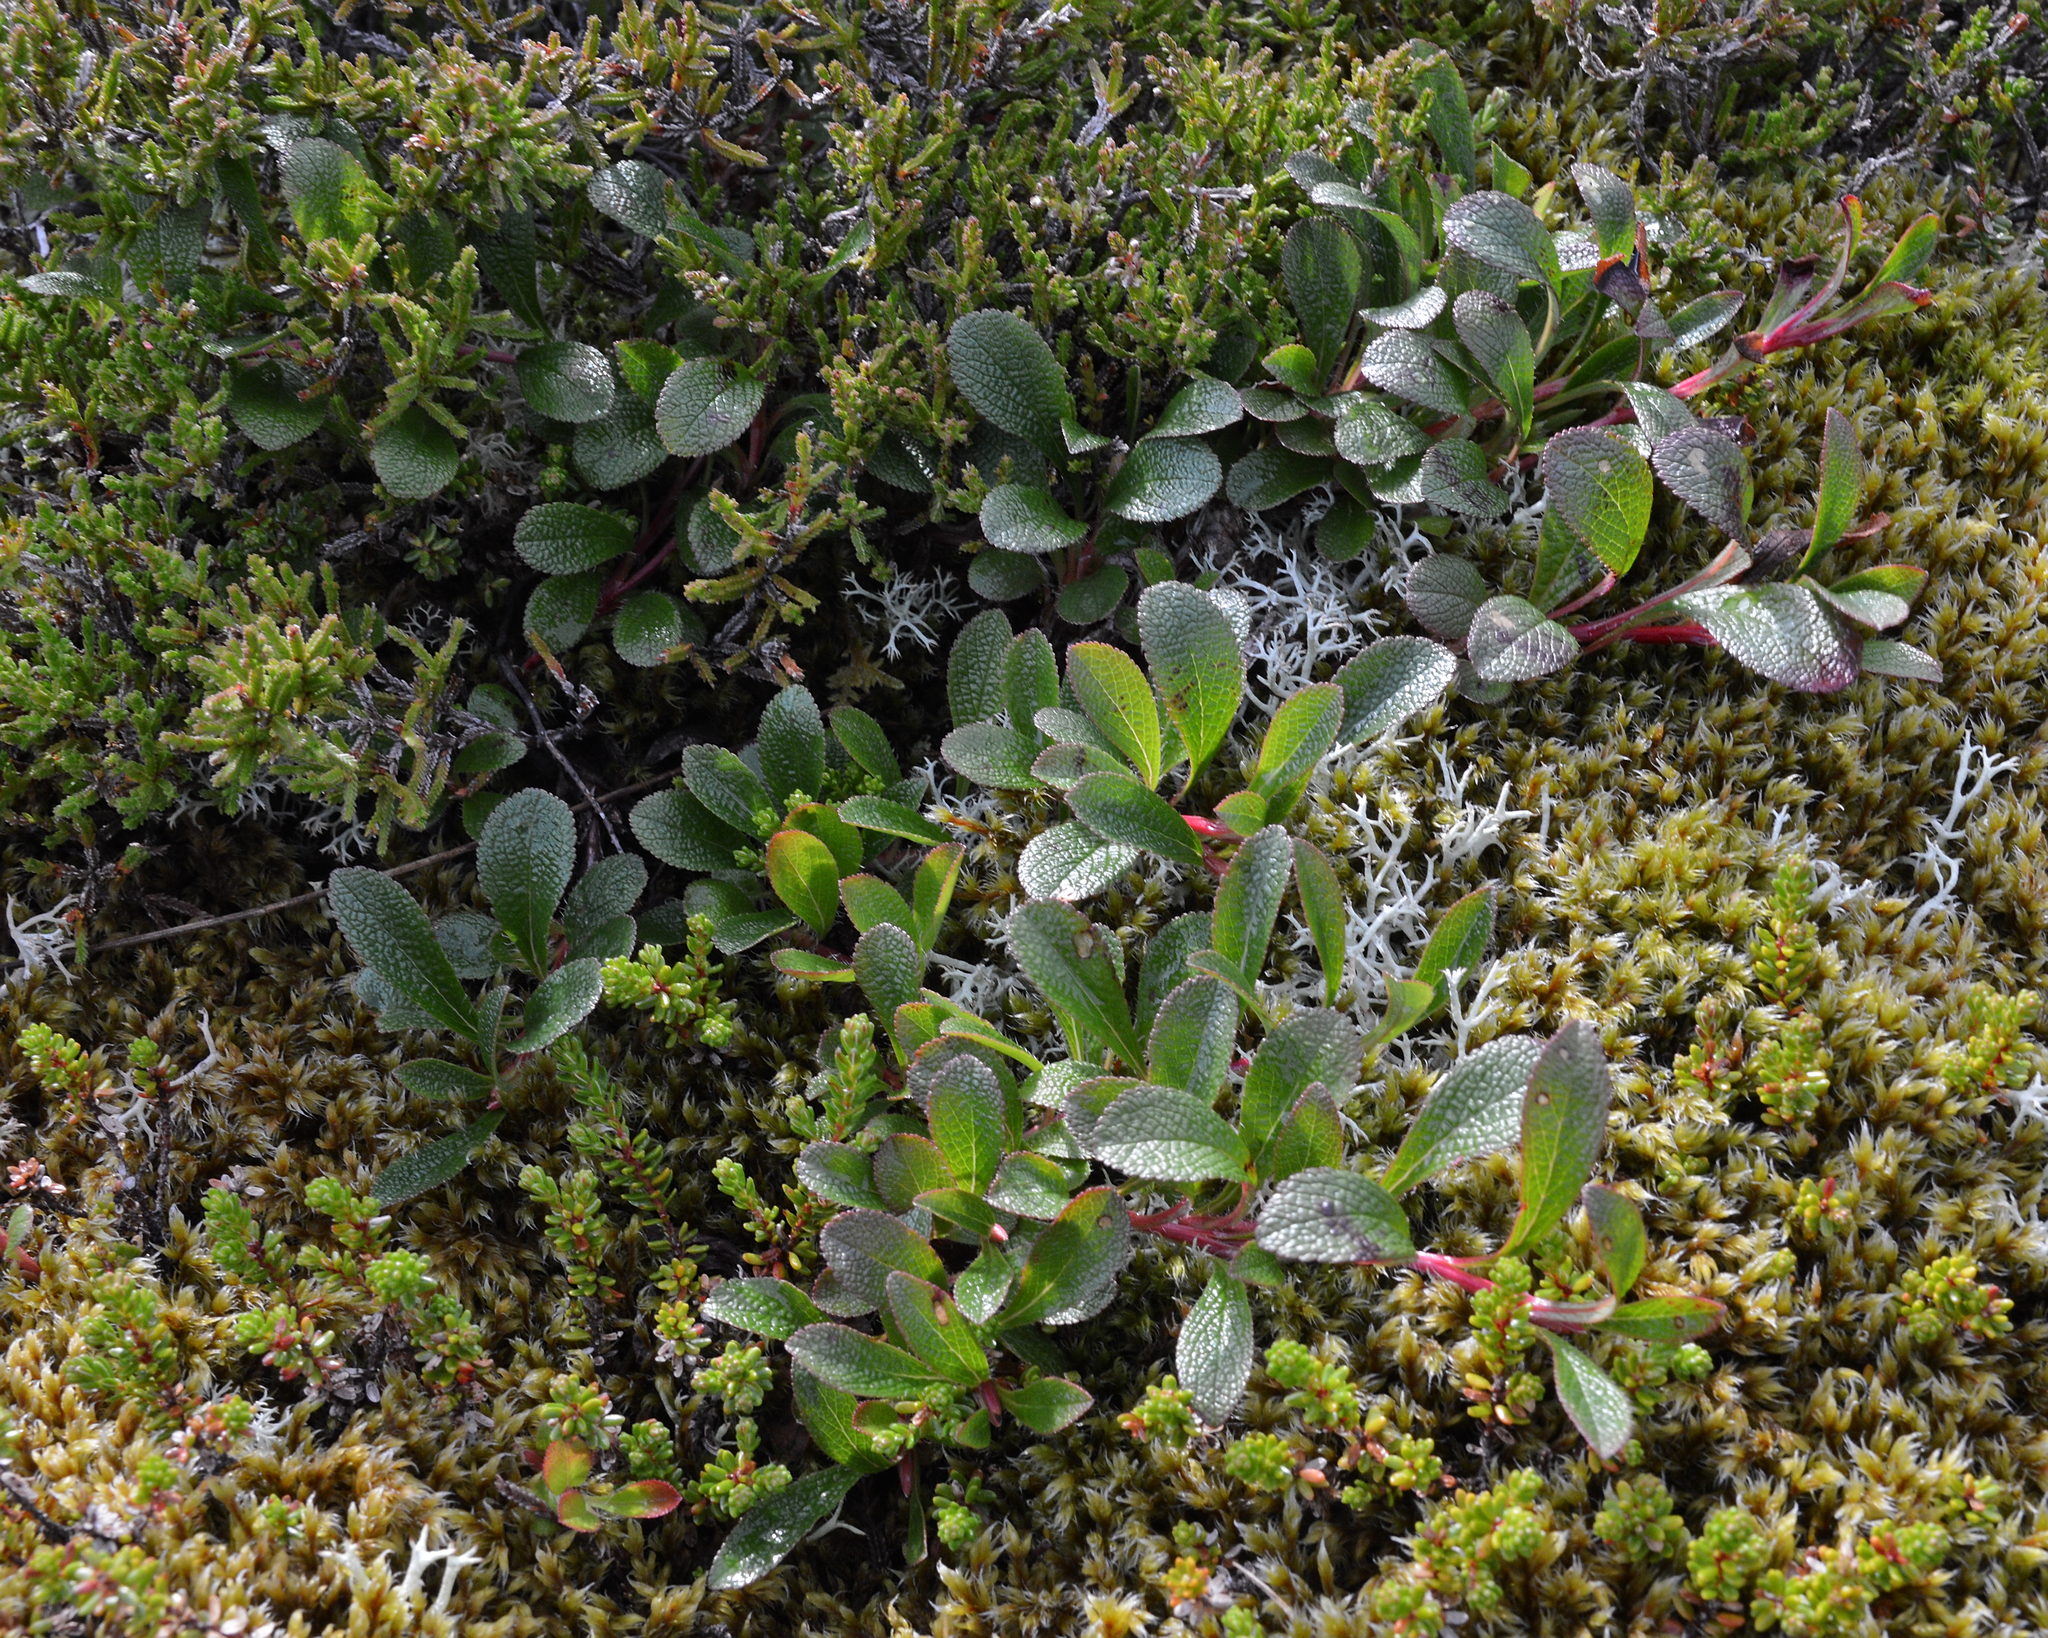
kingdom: Plantae
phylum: Tracheophyta
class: Magnoliopsida
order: Ericales
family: Ericaceae
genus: Arctostaphylos
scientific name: Arctostaphylos alpinus
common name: Alpine bearberry
